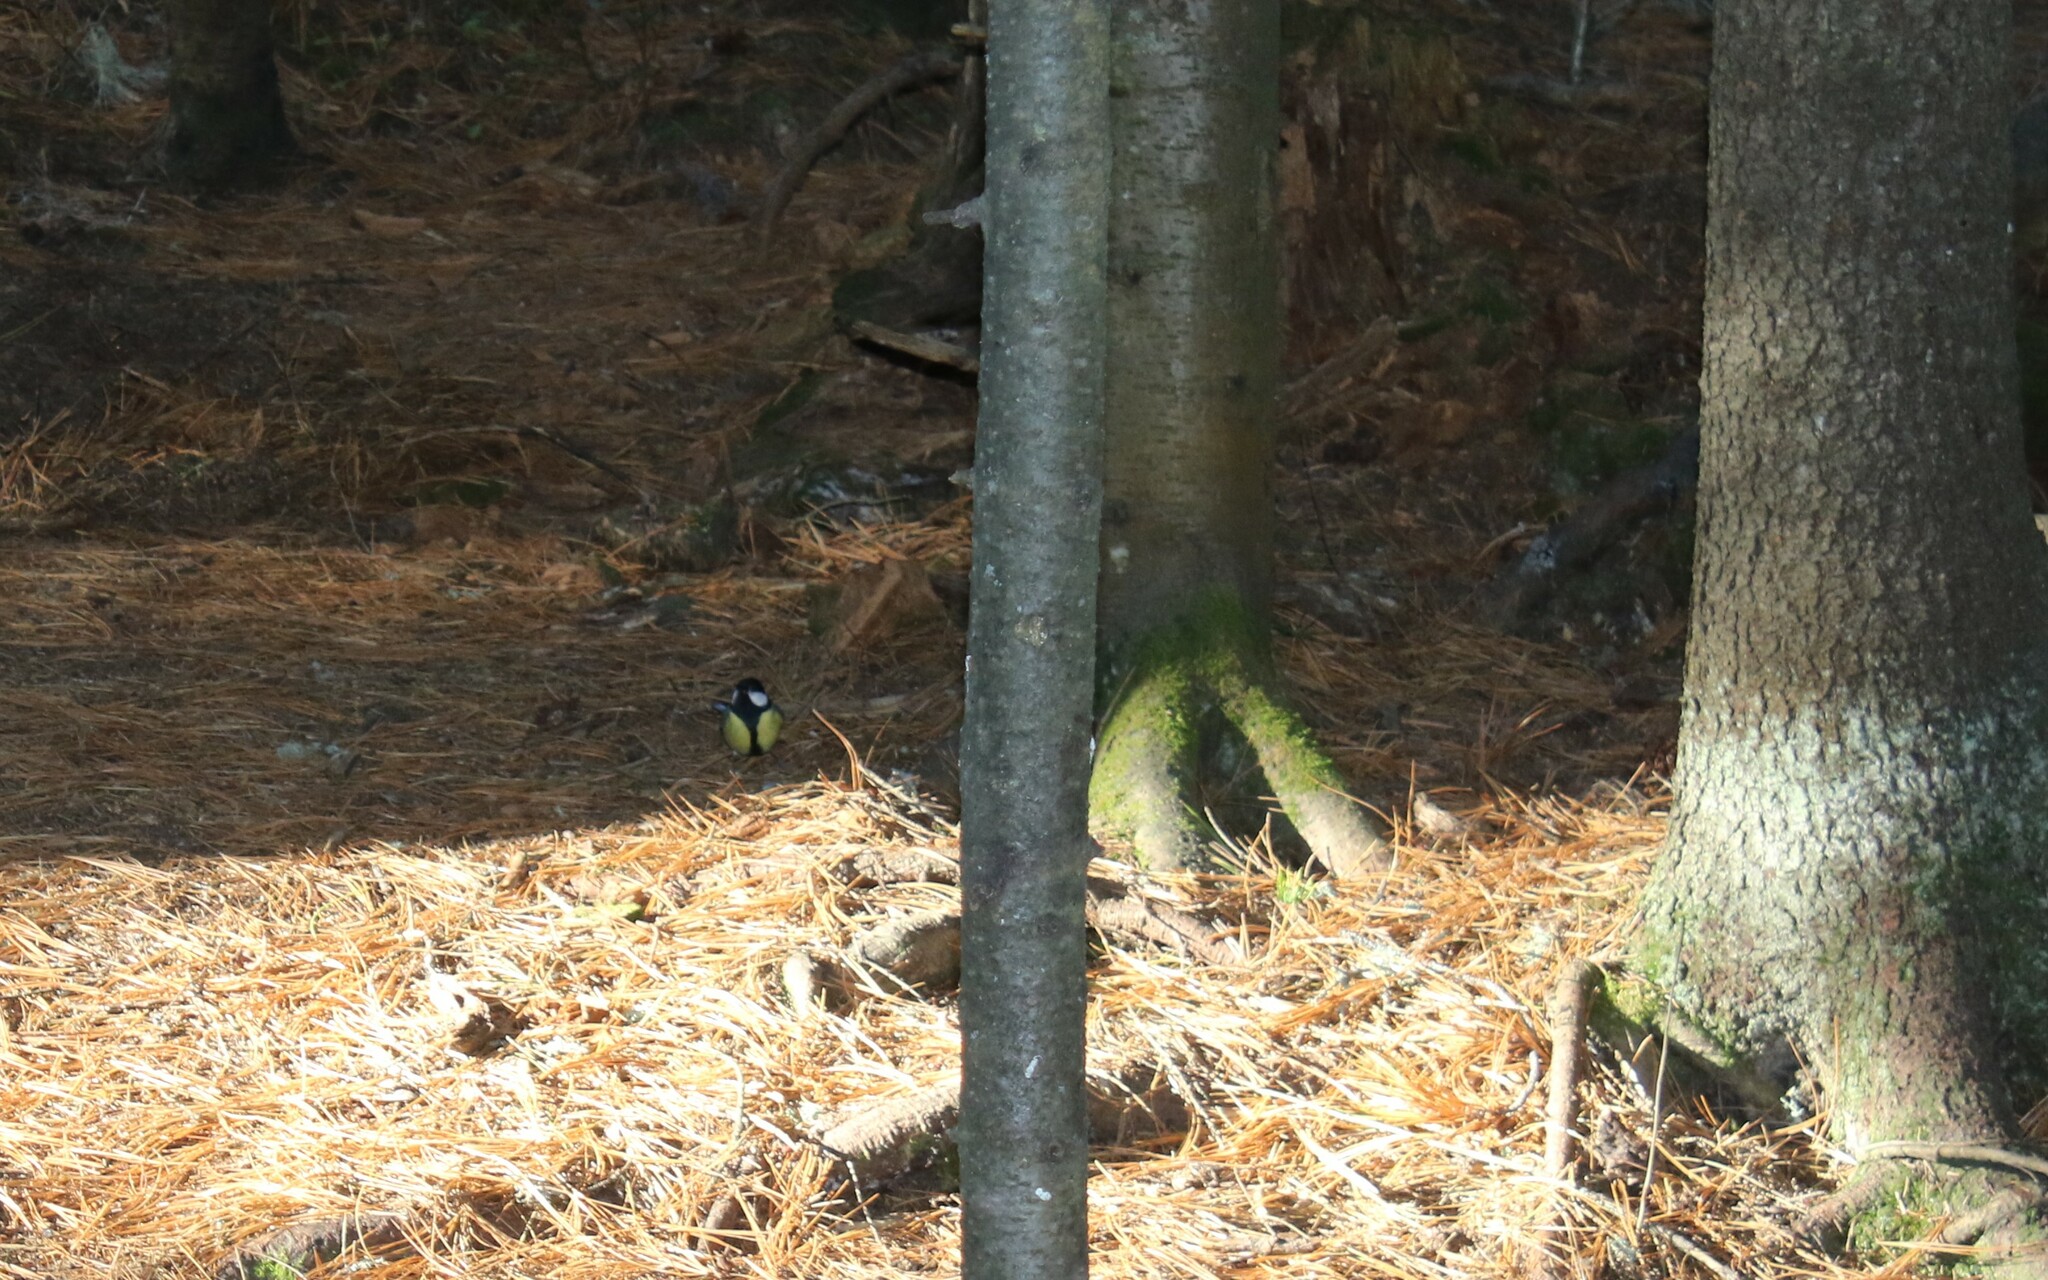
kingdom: Animalia
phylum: Chordata
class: Aves
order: Passeriformes
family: Paridae
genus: Parus
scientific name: Parus major
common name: Great tit
